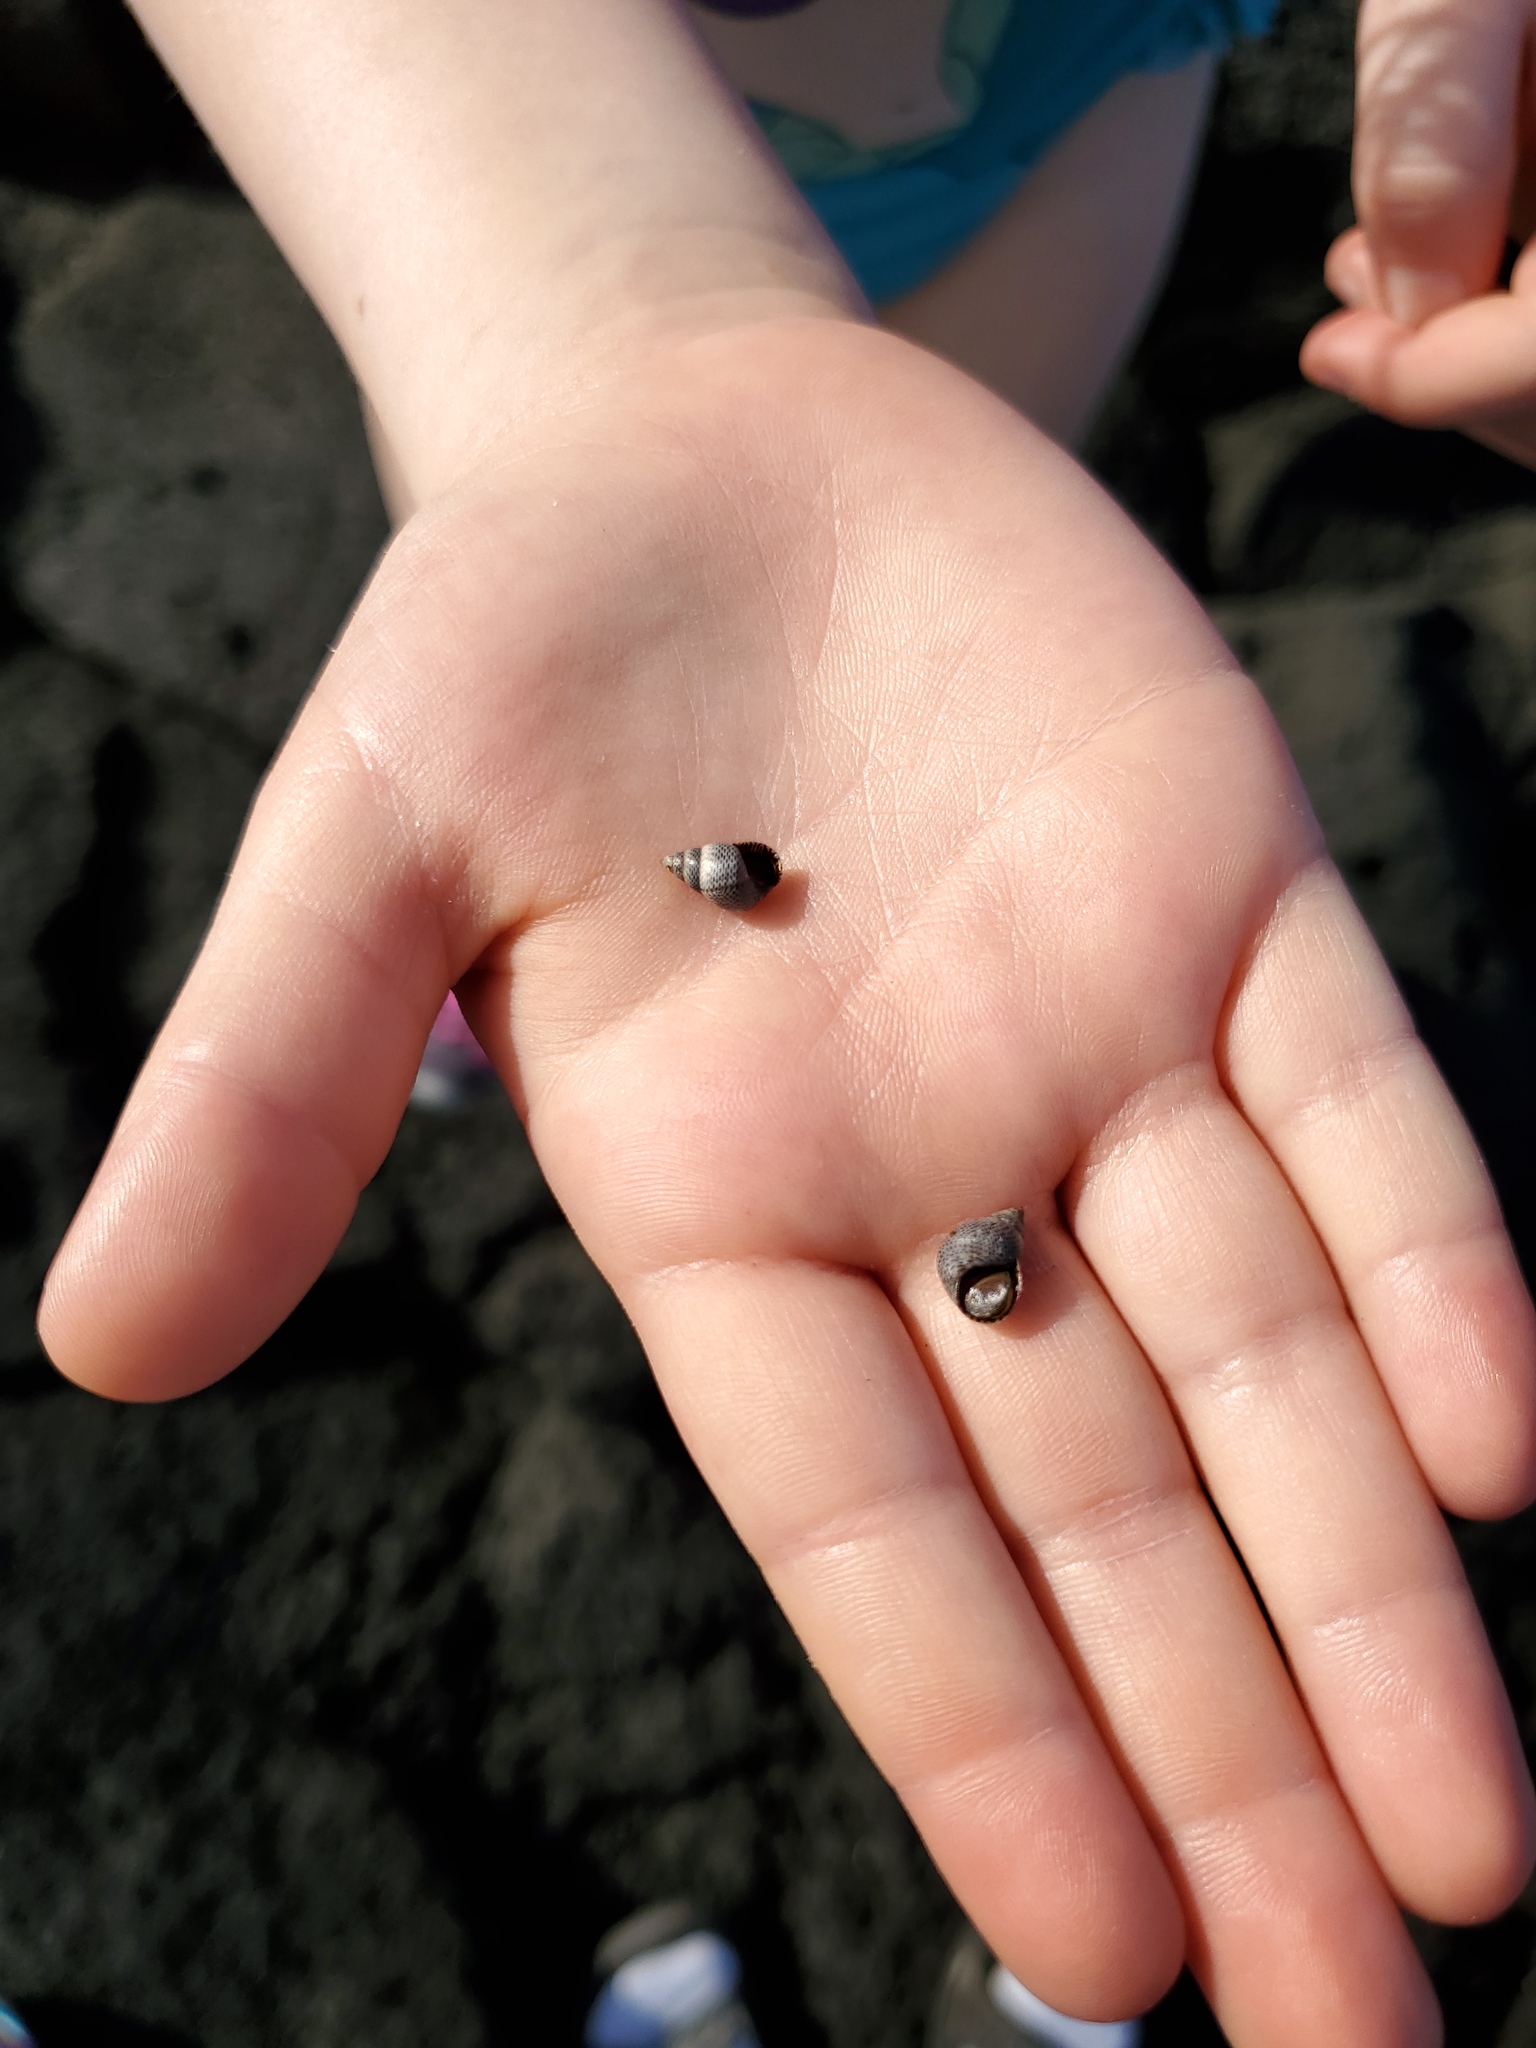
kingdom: Animalia
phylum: Mollusca
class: Gastropoda
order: Littorinimorpha
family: Littorinidae
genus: Littoraria
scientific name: Littoraria pintado
